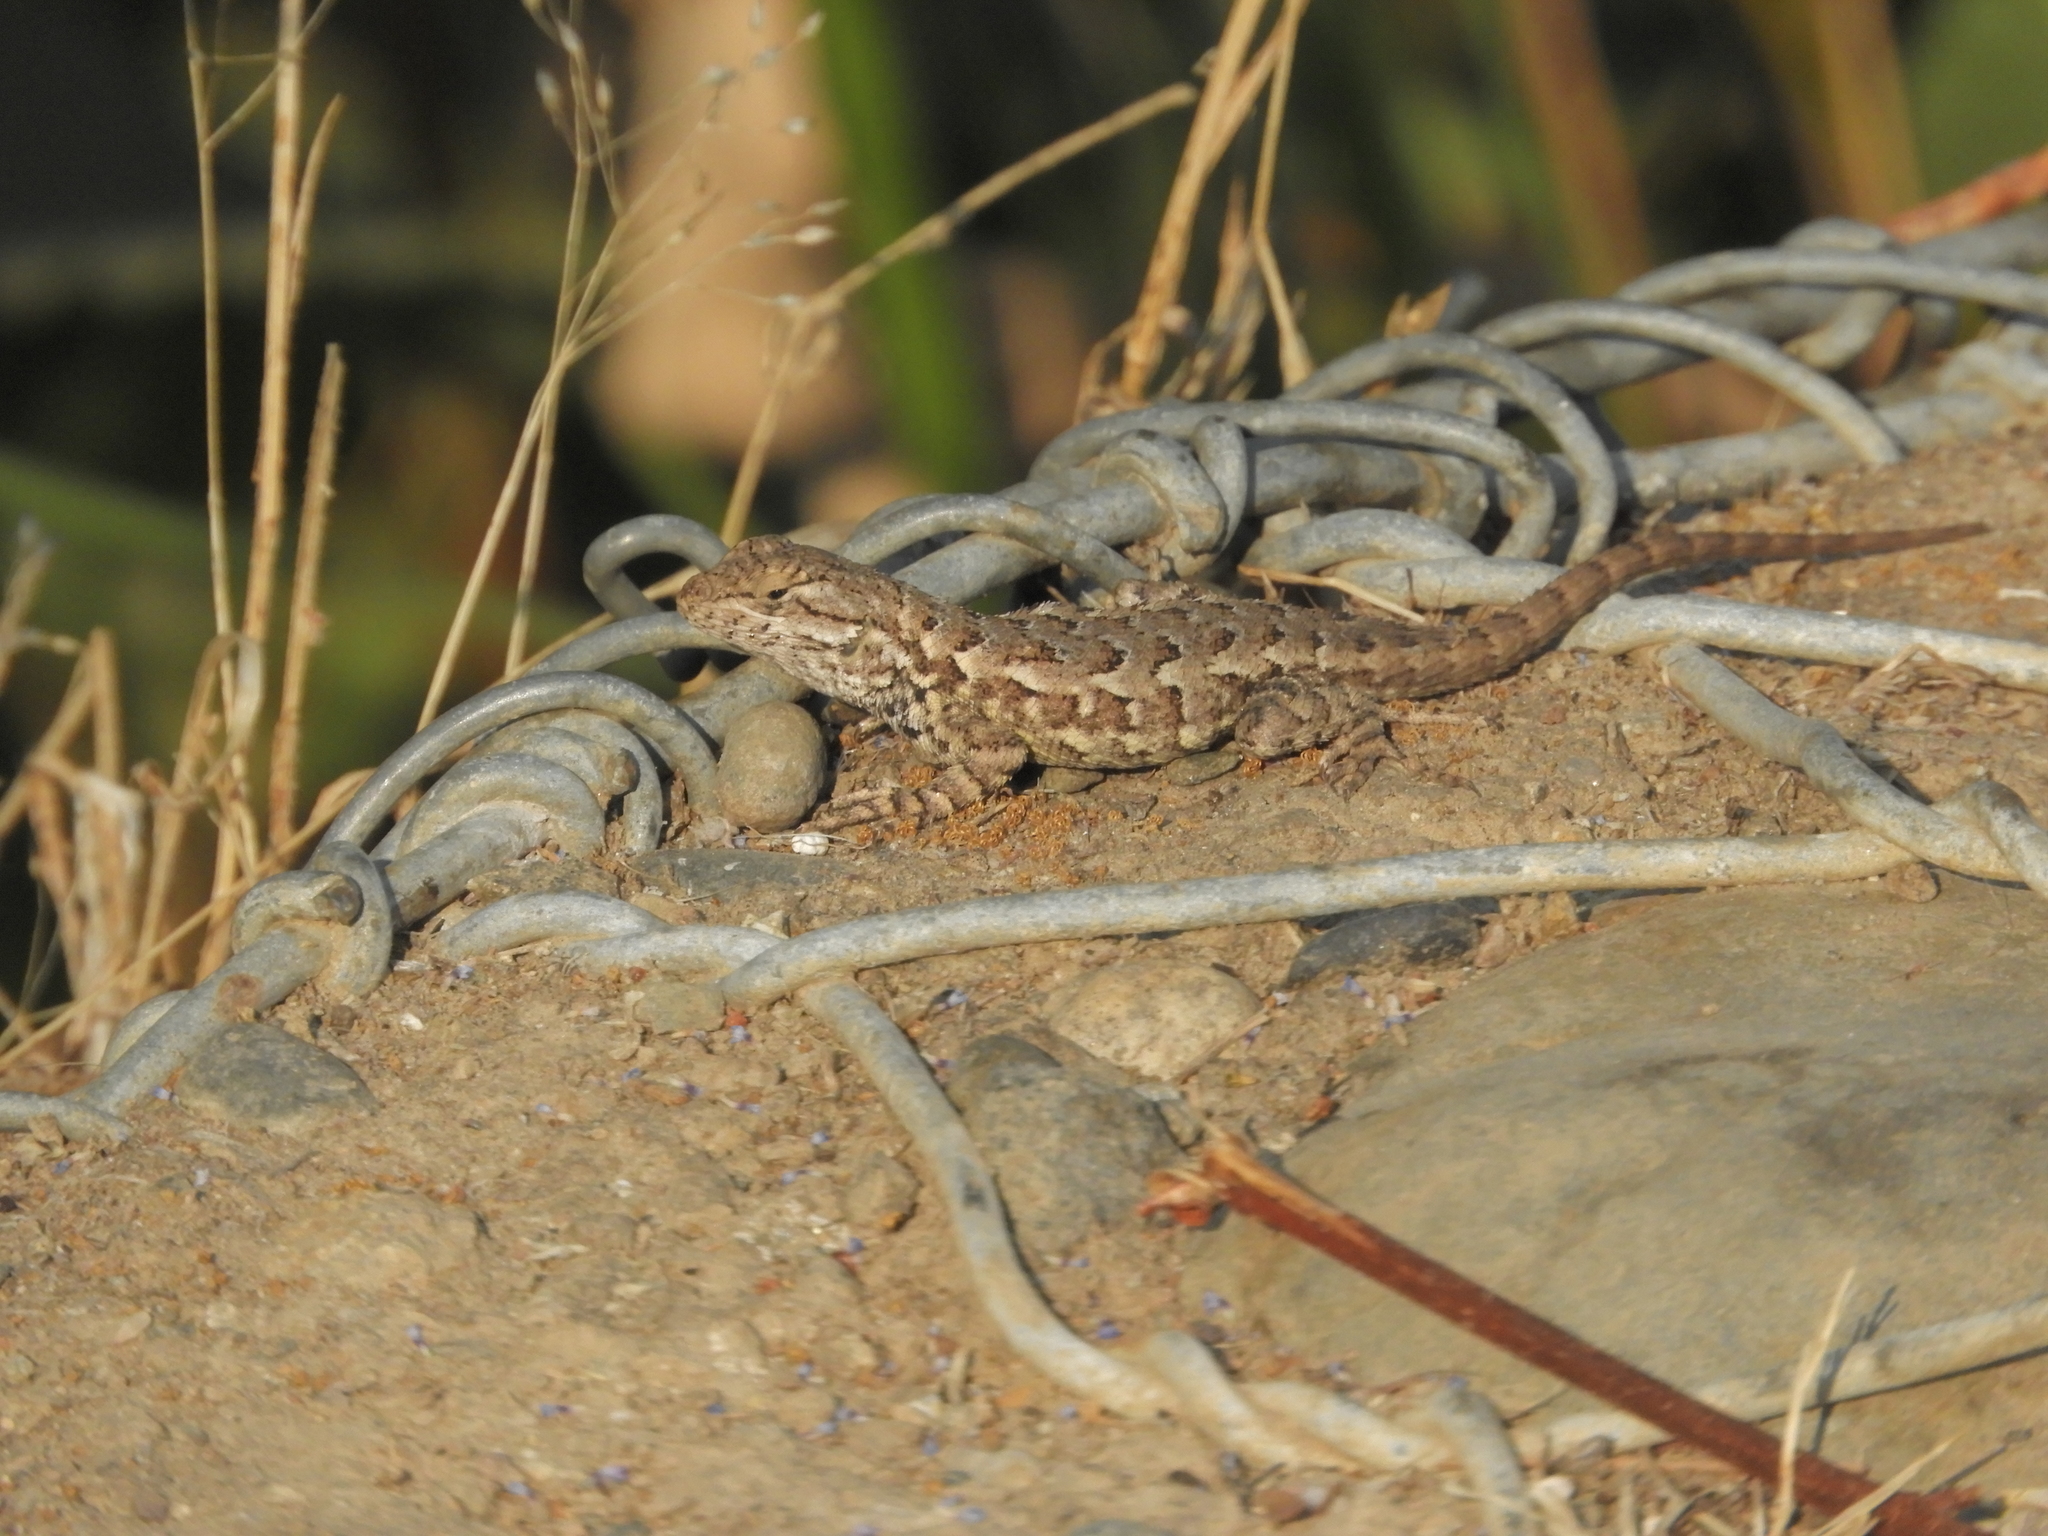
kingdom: Animalia
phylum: Chordata
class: Squamata
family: Phrynosomatidae
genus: Sceloporus
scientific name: Sceloporus occidentalis
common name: Western fence lizard
